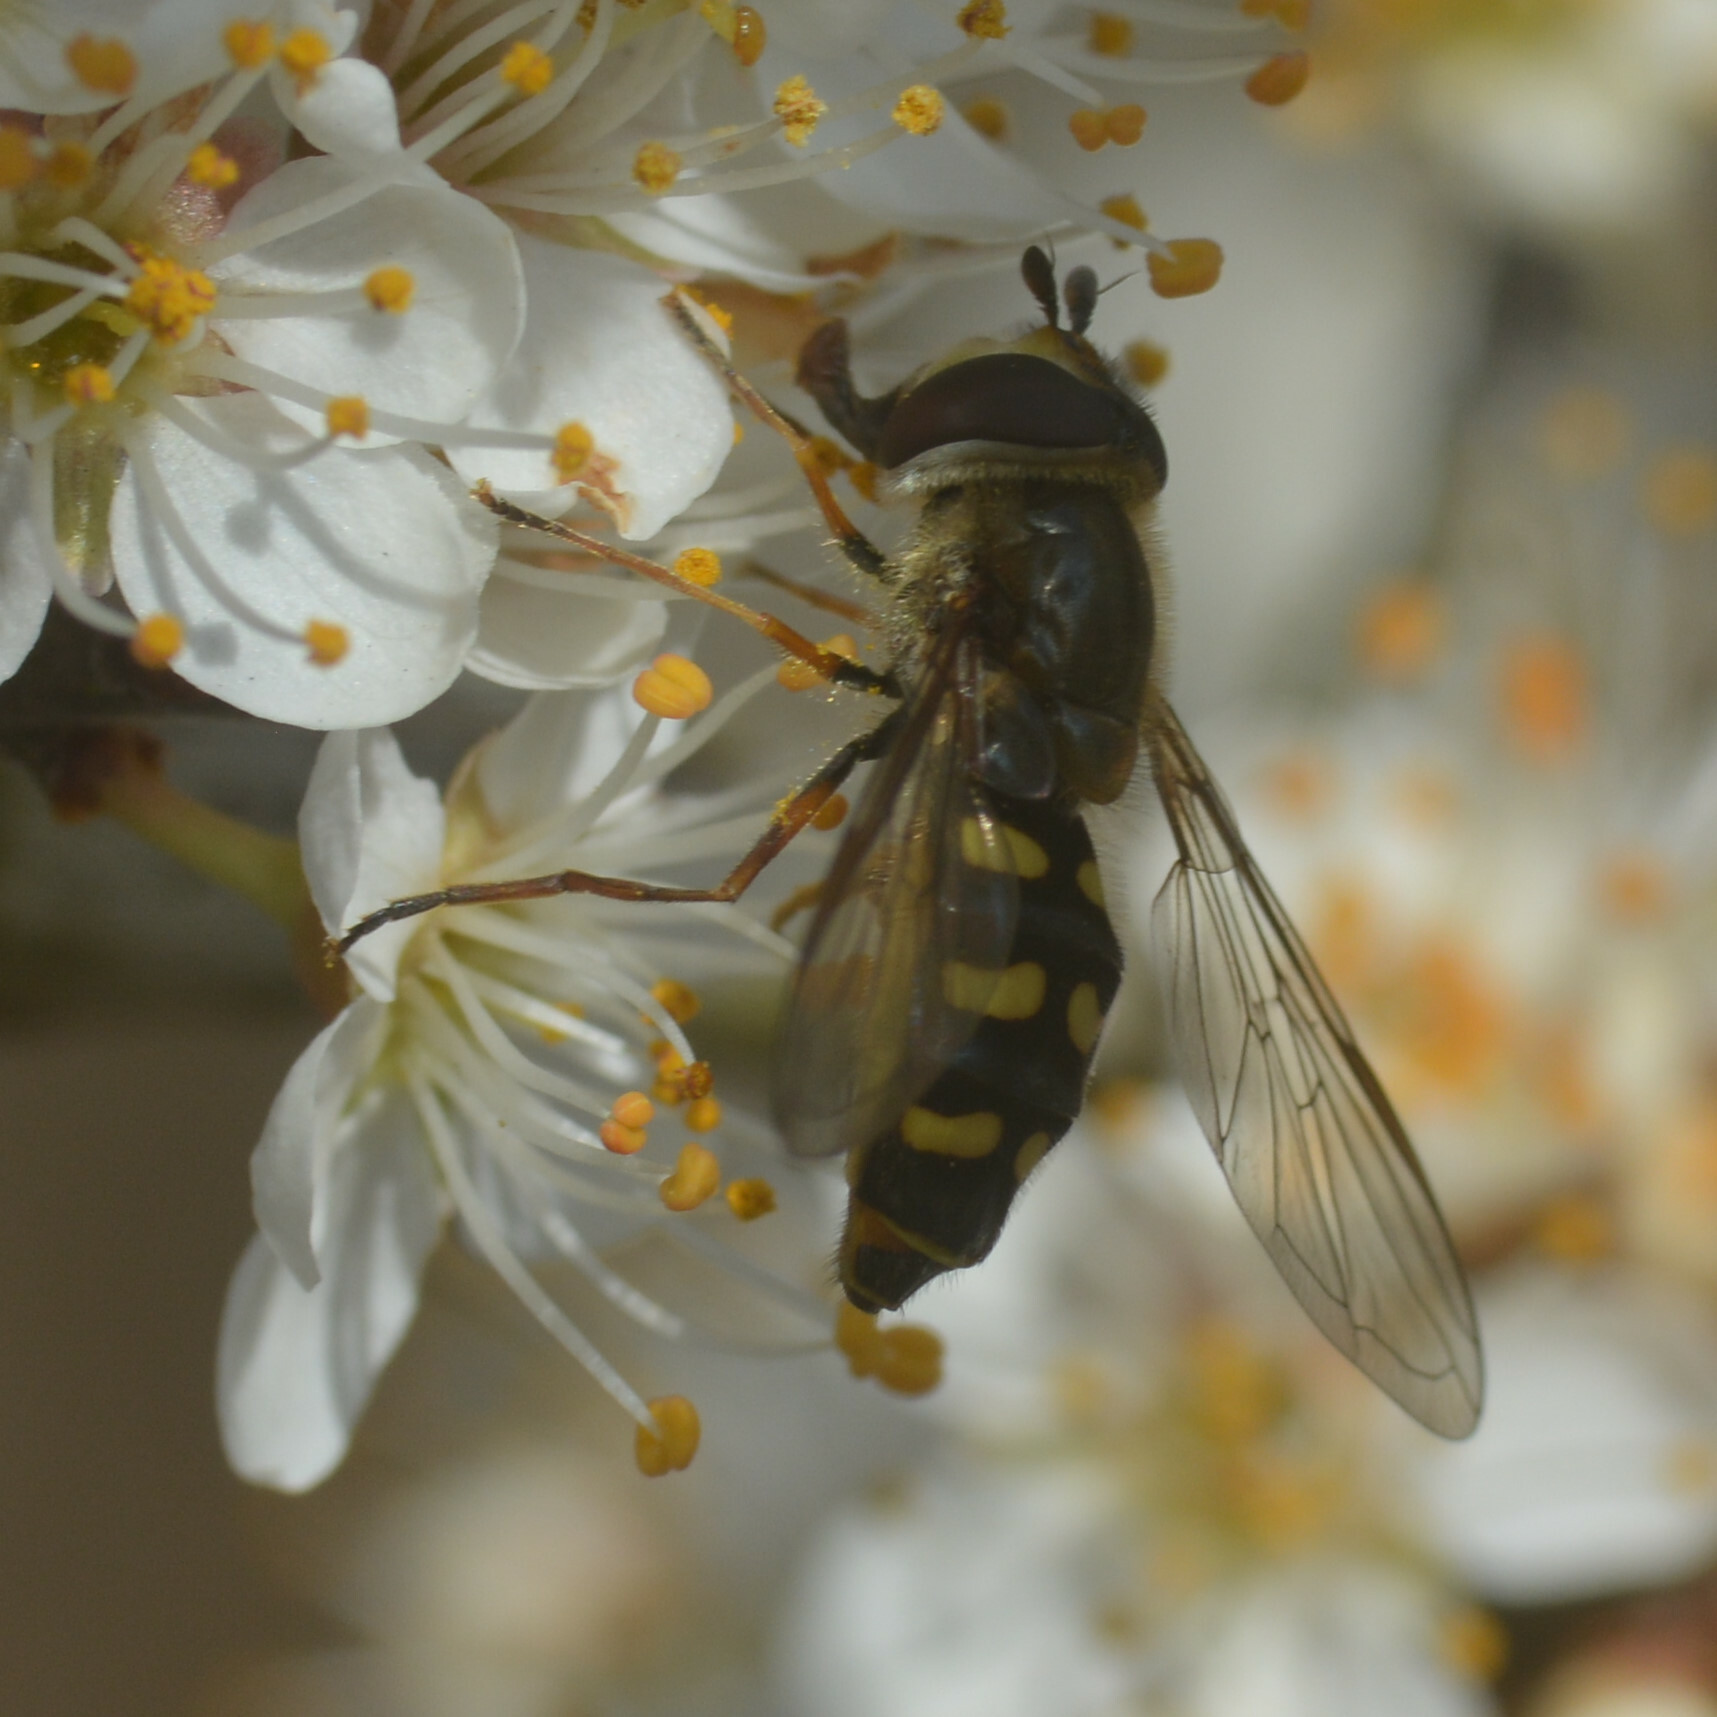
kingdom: Animalia
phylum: Arthropoda
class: Insecta
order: Diptera
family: Syrphidae
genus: Eupeodes
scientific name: Eupeodes luniger
